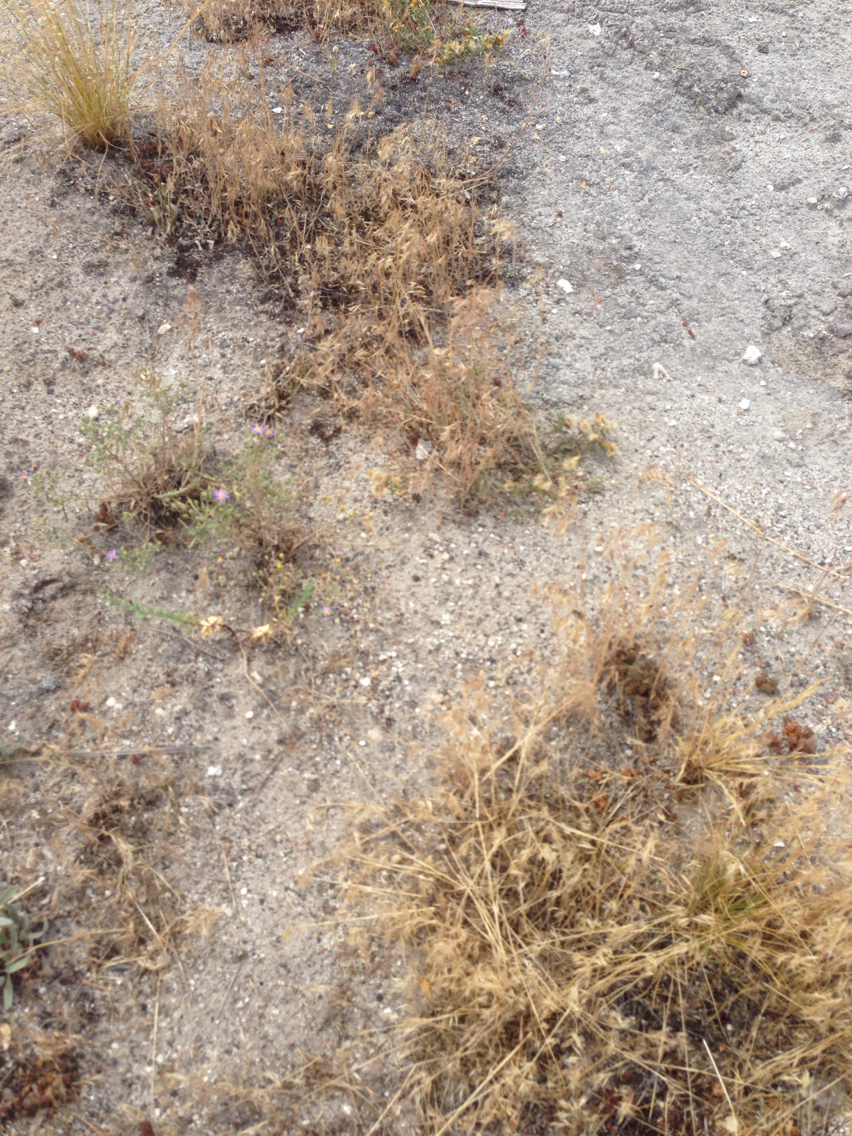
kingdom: Plantae
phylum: Tracheophyta
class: Liliopsida
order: Poales
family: Poaceae
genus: Bromus
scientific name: Bromus tectorum
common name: Cheatgrass
